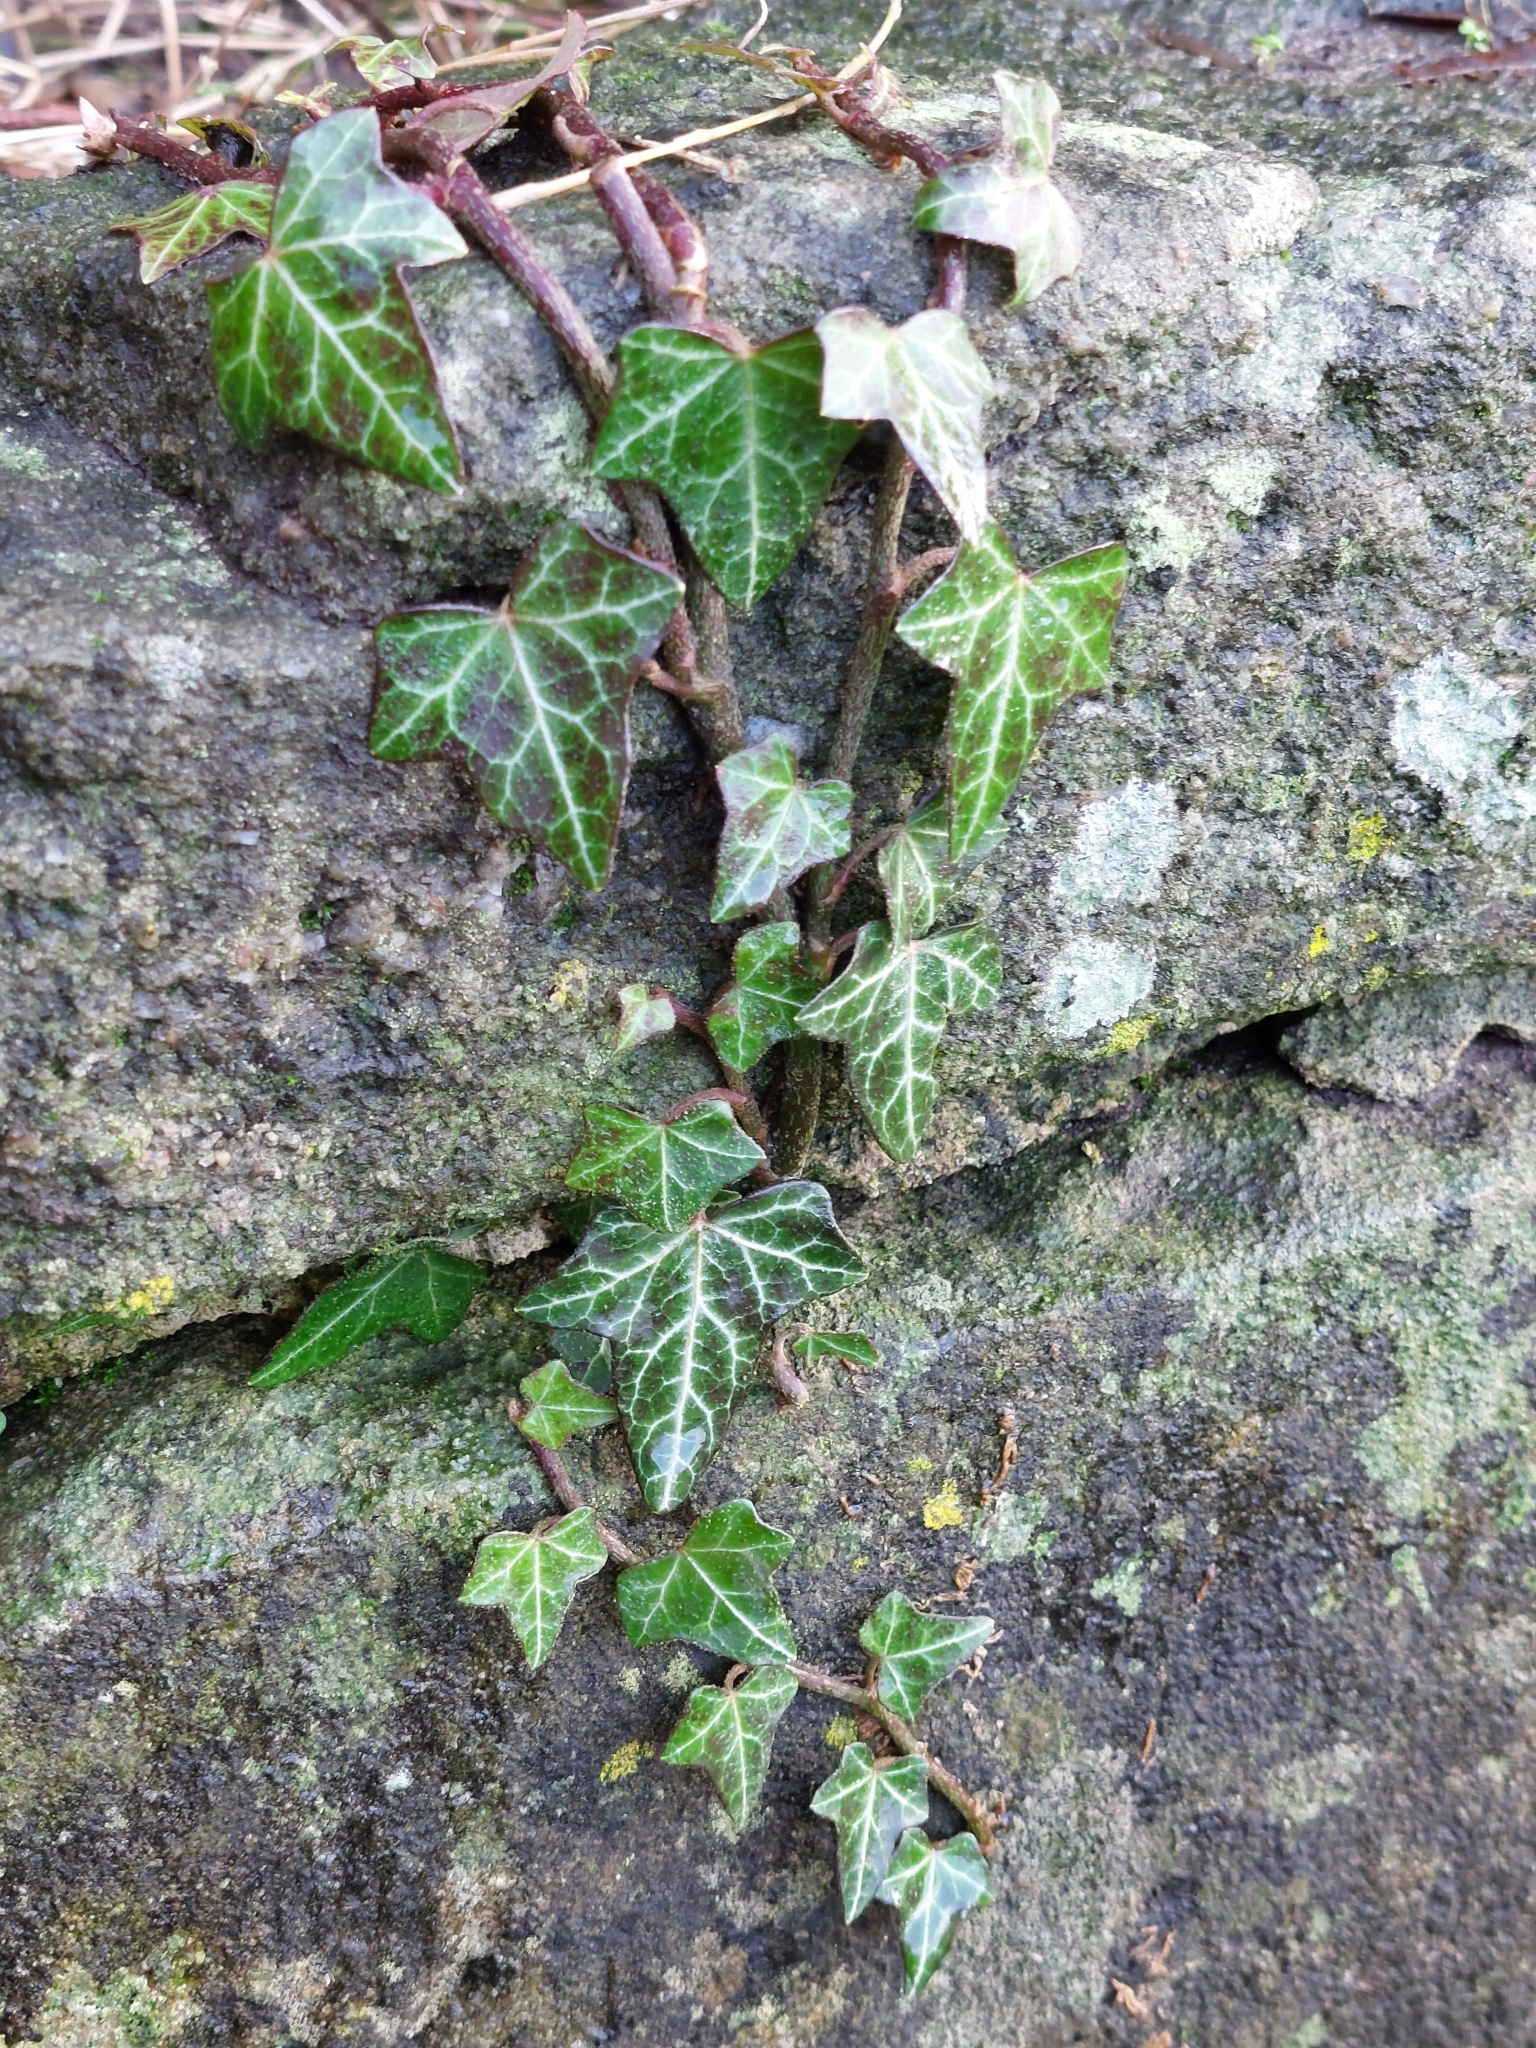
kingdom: Plantae
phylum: Tracheophyta
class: Magnoliopsida
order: Apiales
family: Araliaceae
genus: Hedera
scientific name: Hedera helix
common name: Ivy
